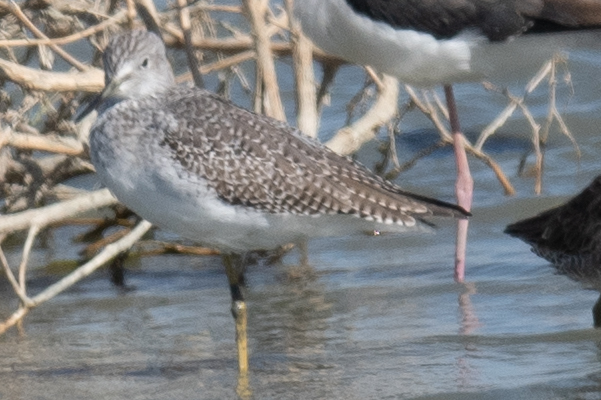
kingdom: Animalia
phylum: Chordata
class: Aves
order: Charadriiformes
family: Scolopacidae
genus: Tringa
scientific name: Tringa melanoleuca
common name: Greater yellowlegs
